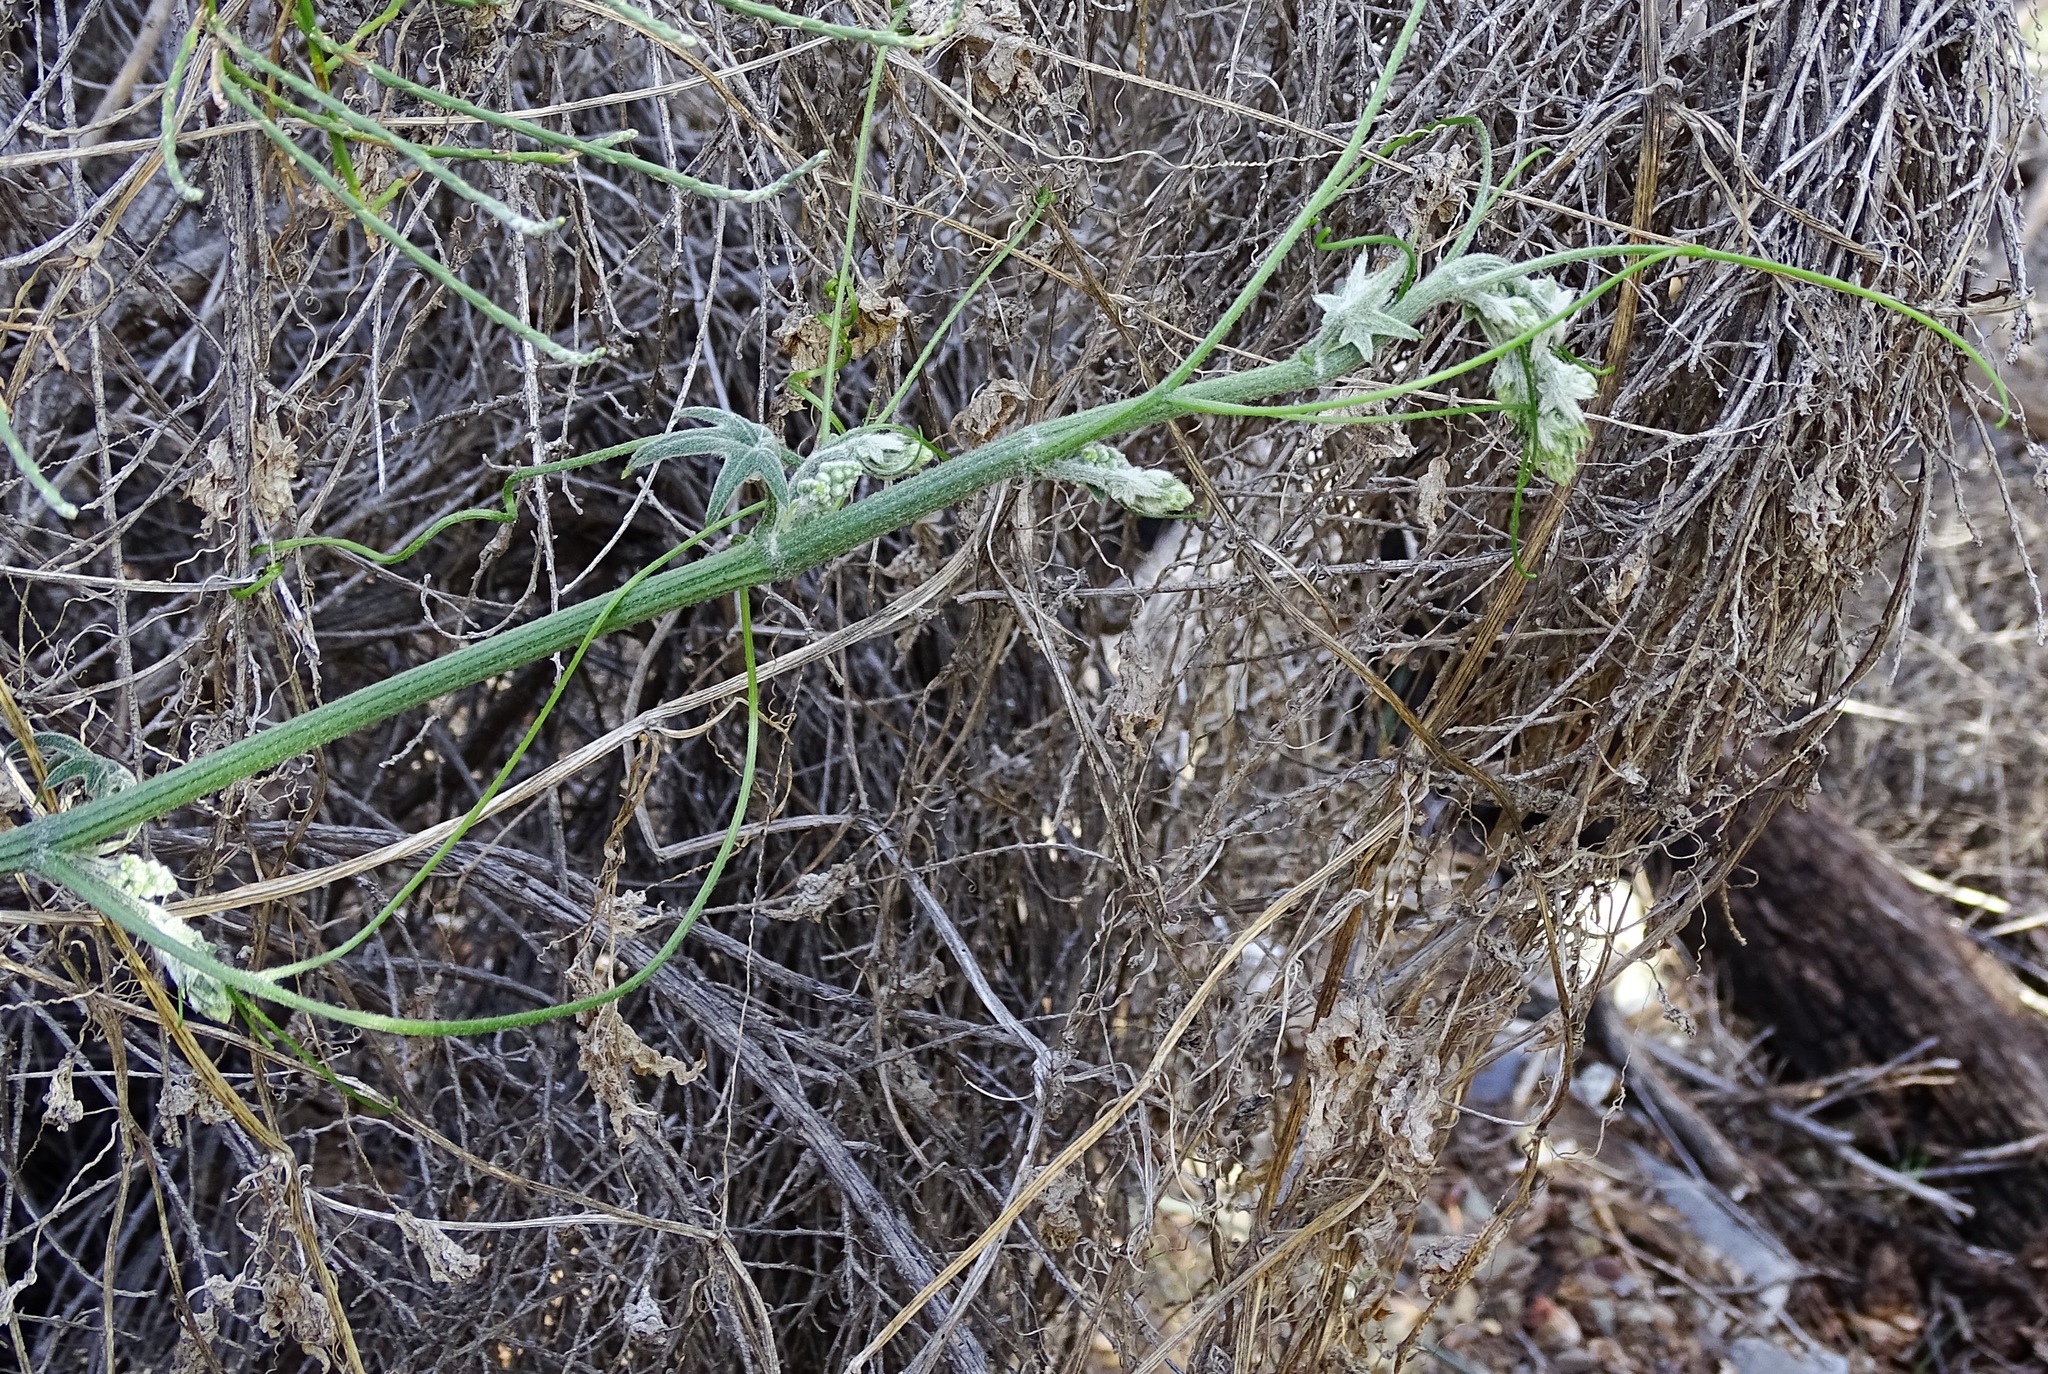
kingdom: Plantae
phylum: Tracheophyta
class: Magnoliopsida
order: Cucurbitales
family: Cucurbitaceae
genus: Marah
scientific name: Marah macrocarpa
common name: Cucamonga manroot
